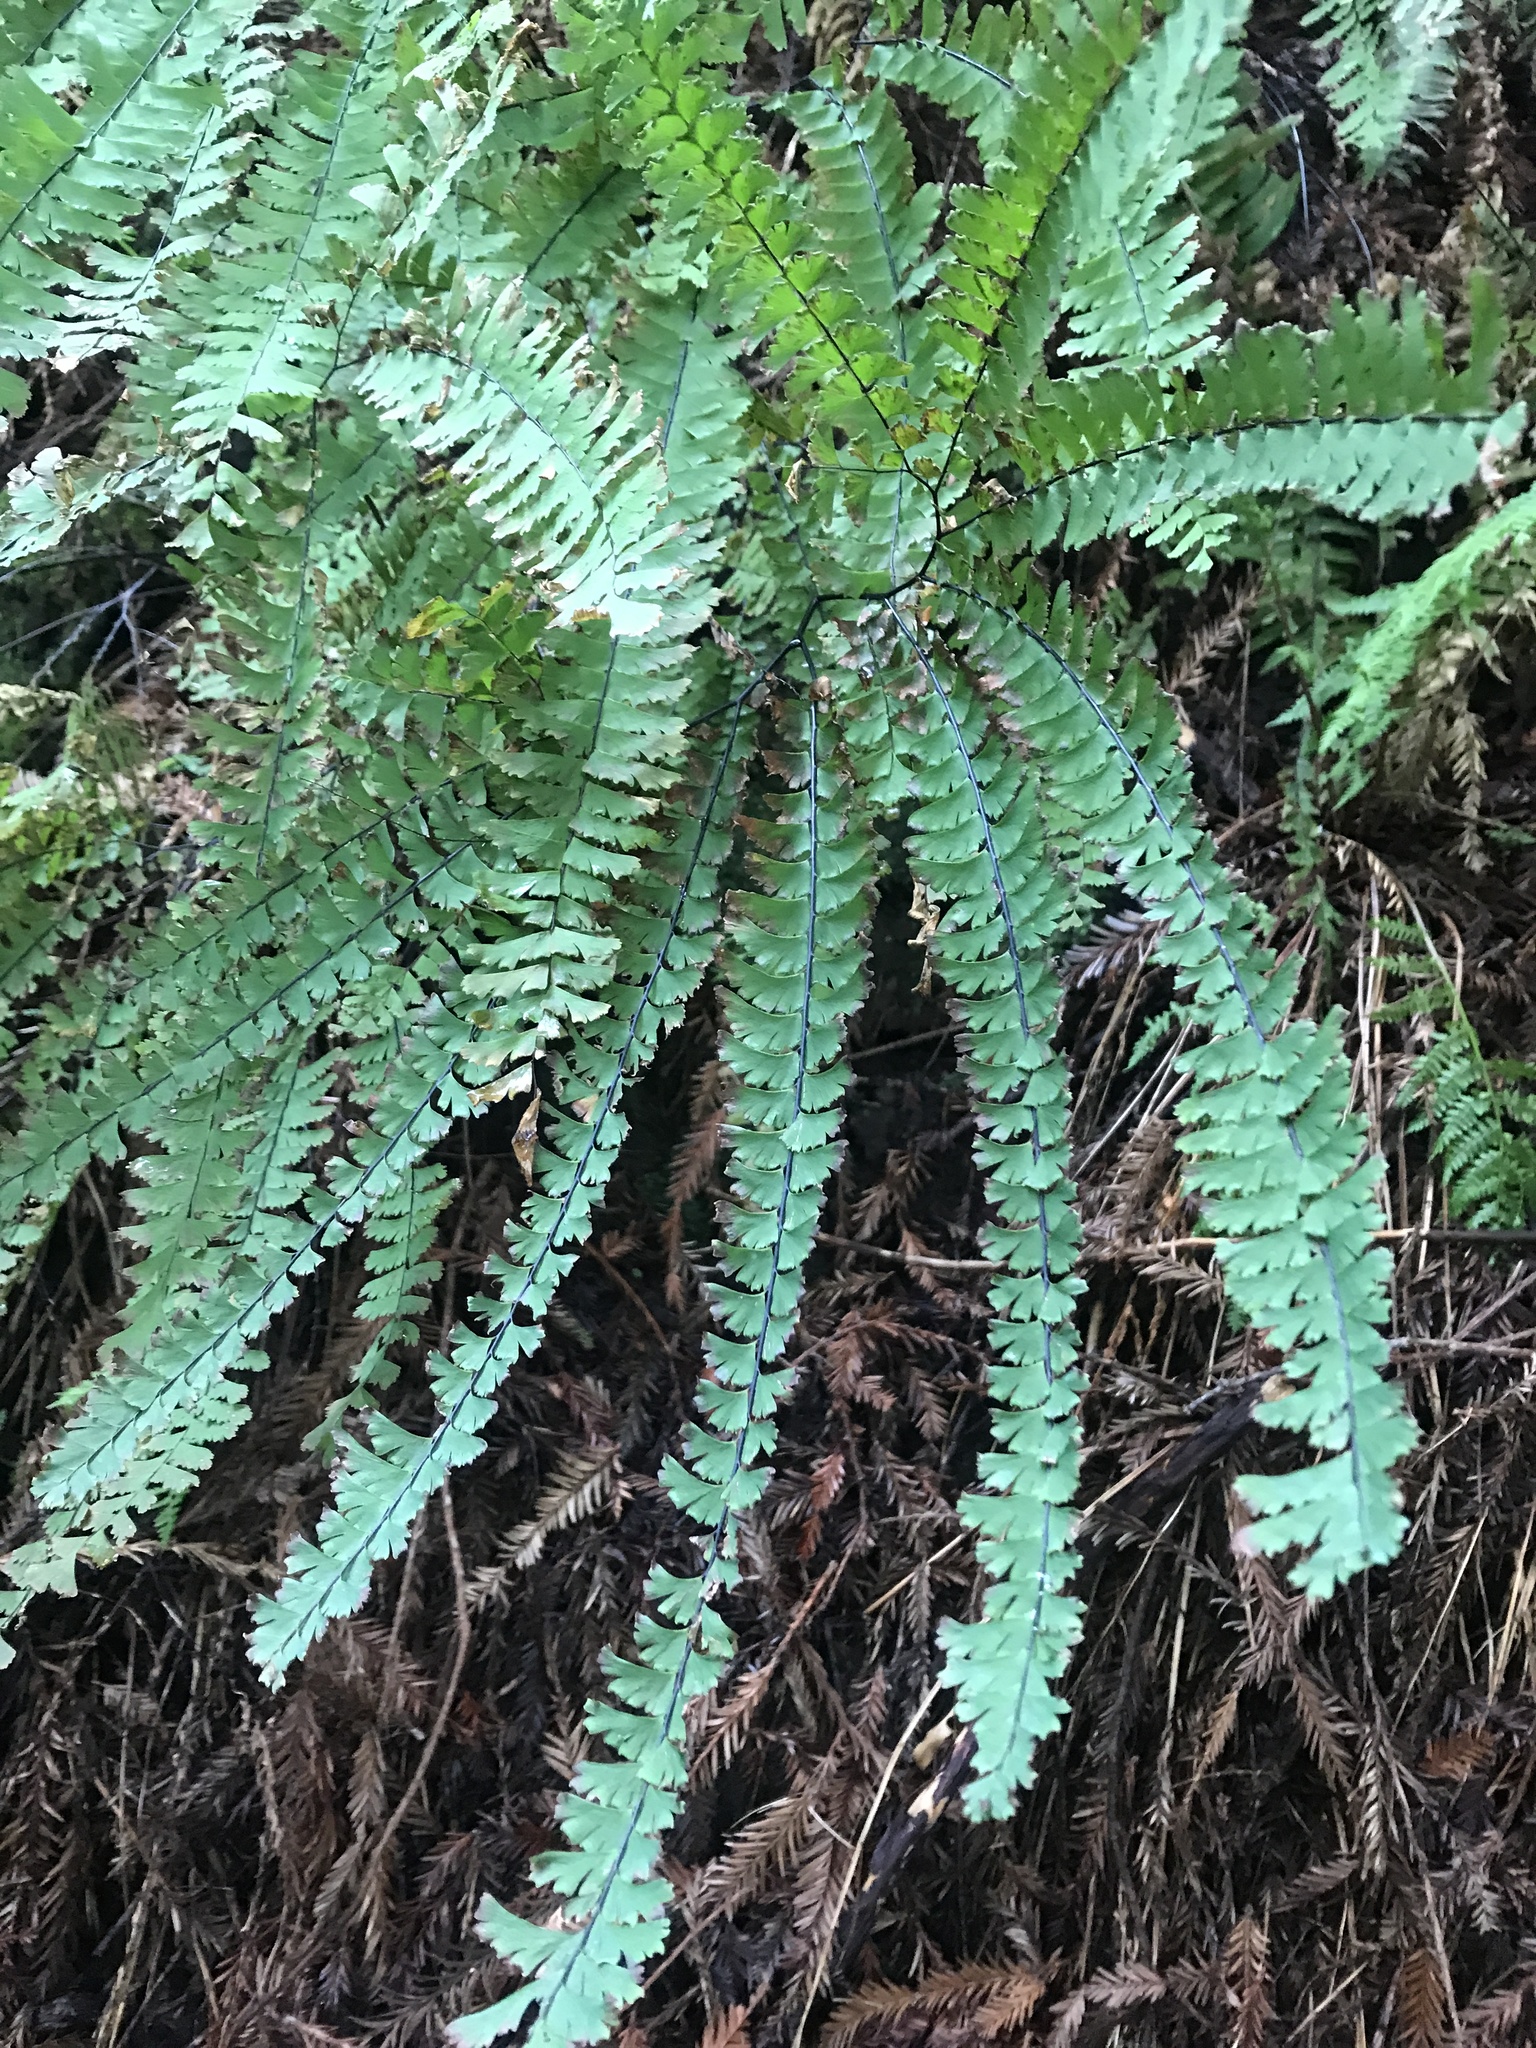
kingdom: Plantae
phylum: Tracheophyta
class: Polypodiopsida
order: Polypodiales
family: Pteridaceae
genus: Adiantum
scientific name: Adiantum aleuticum
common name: Aleutian maidenhair fern
